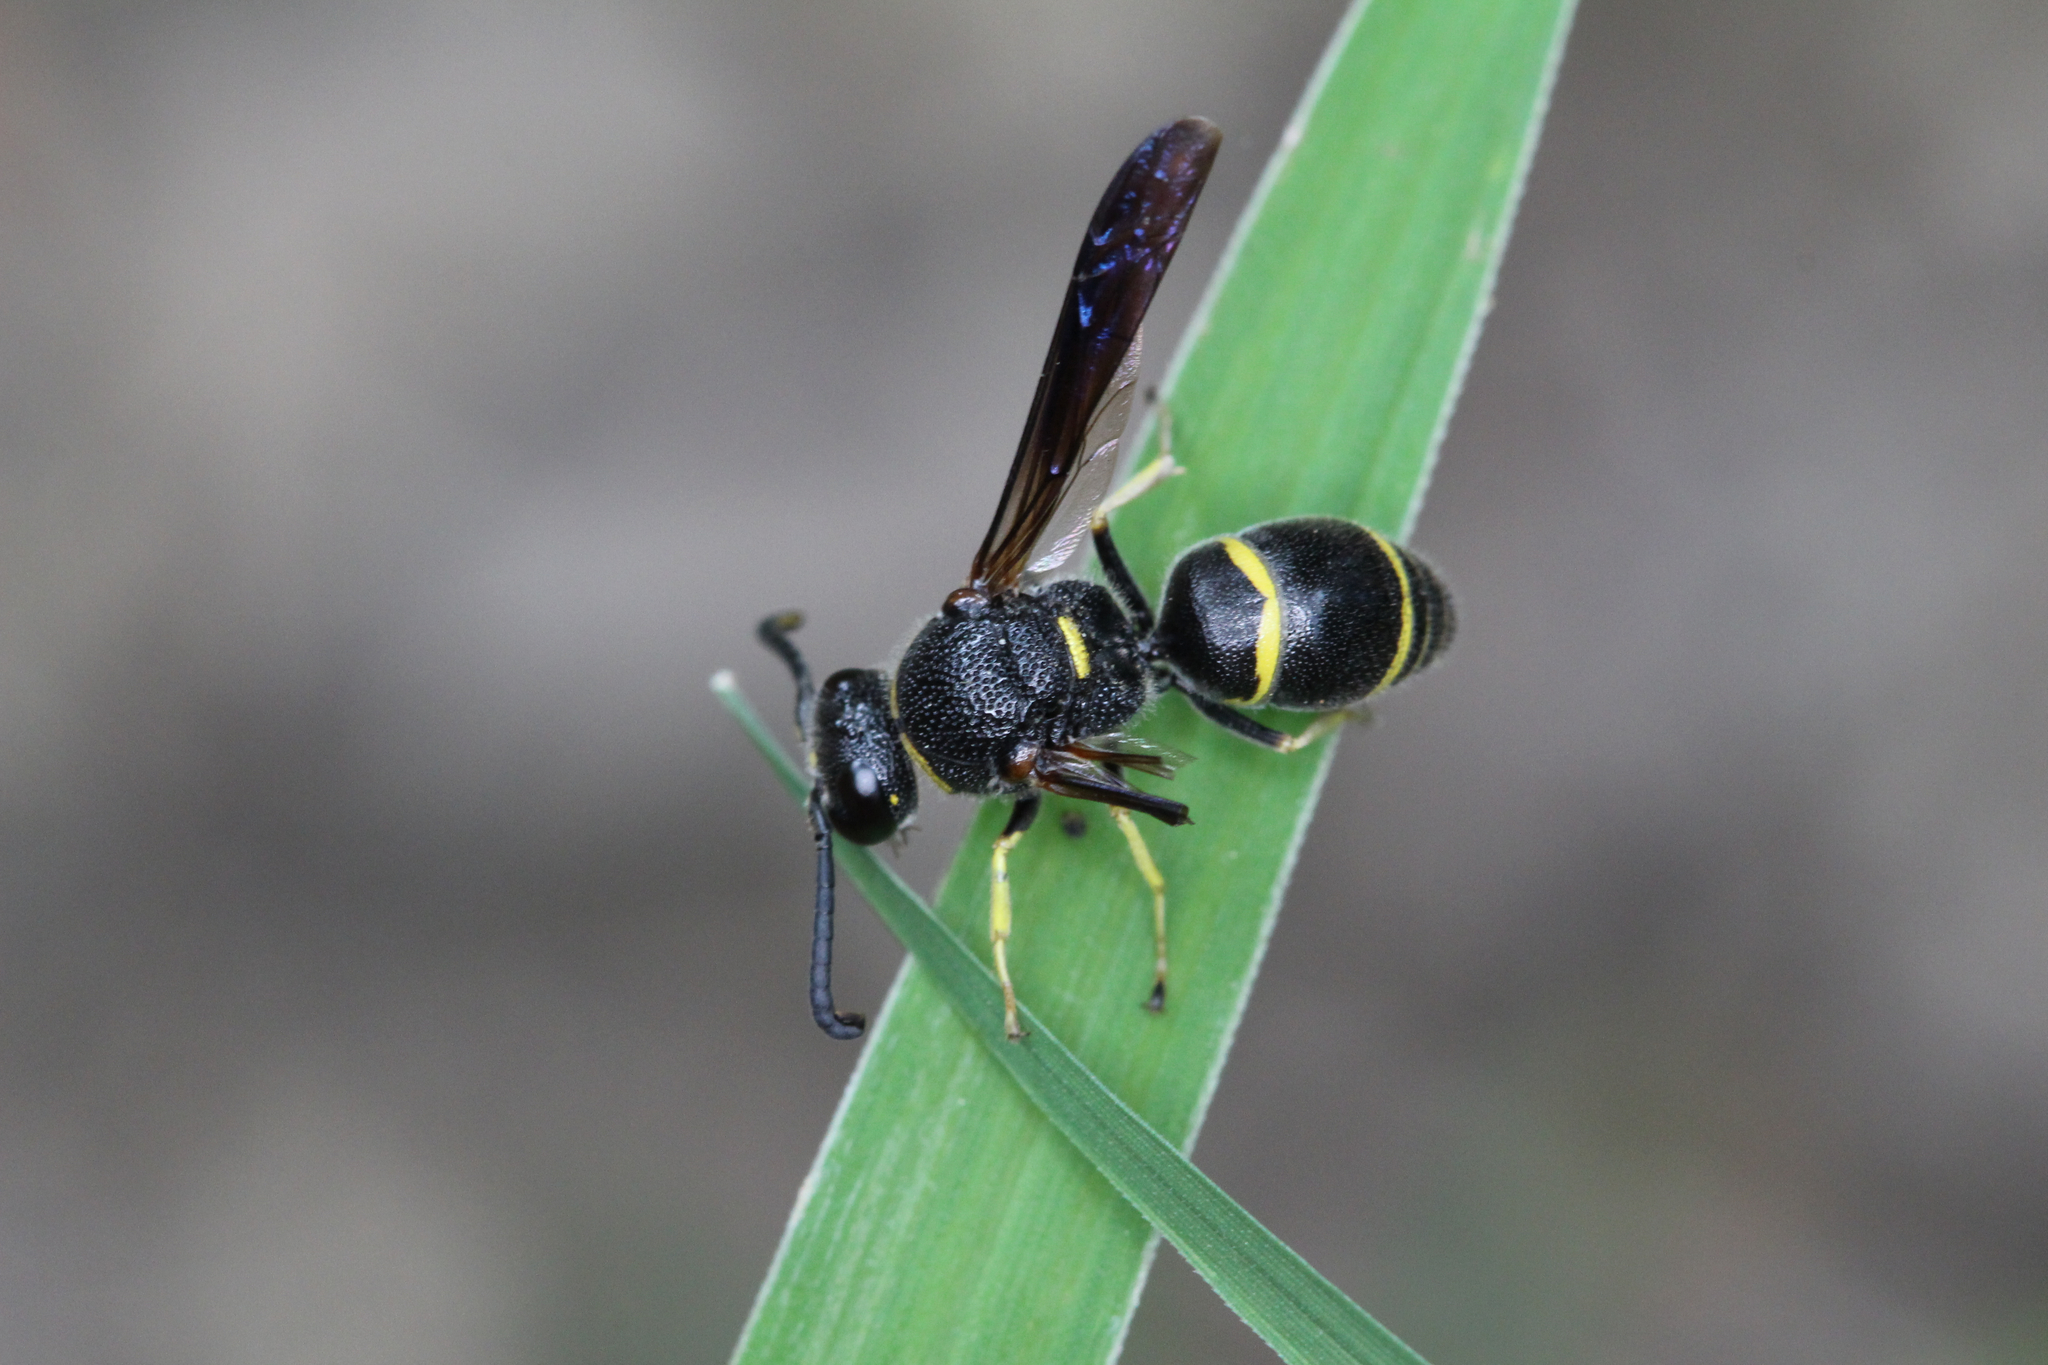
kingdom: Animalia
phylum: Arthropoda
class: Insecta
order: Hymenoptera
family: Eumenidae
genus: Euodynerus
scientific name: Euodynerus
